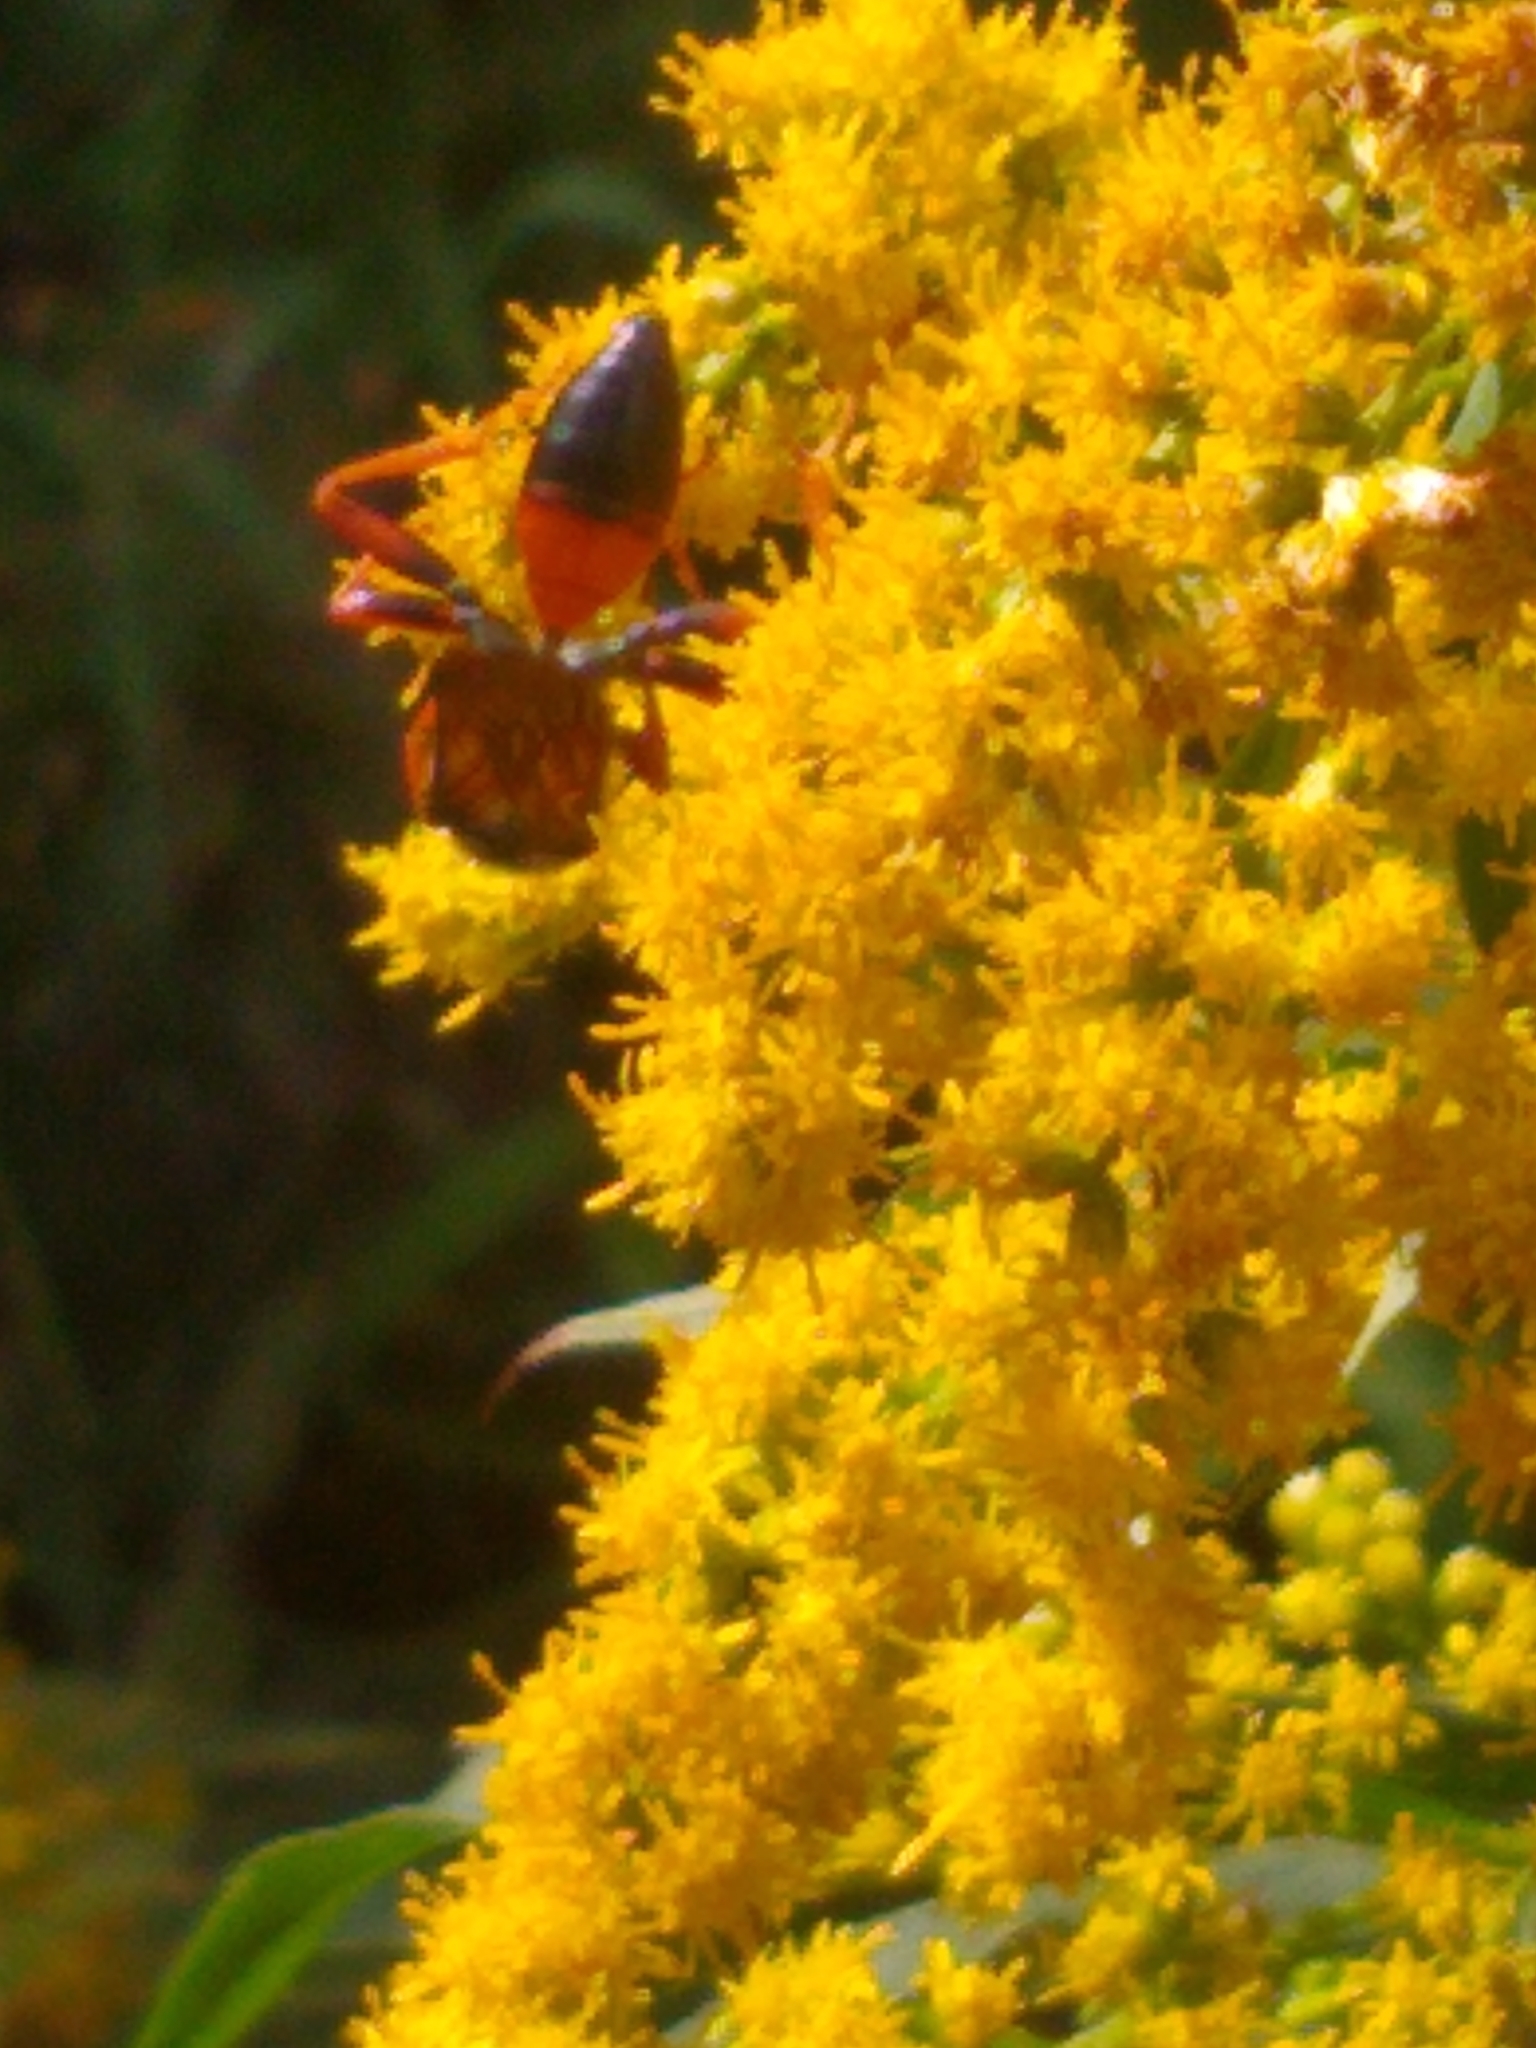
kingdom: Animalia
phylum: Arthropoda
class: Insecta
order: Hymenoptera
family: Sphecidae
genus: Sphex
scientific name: Sphex ichneumoneus
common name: Great golden digger wasp
